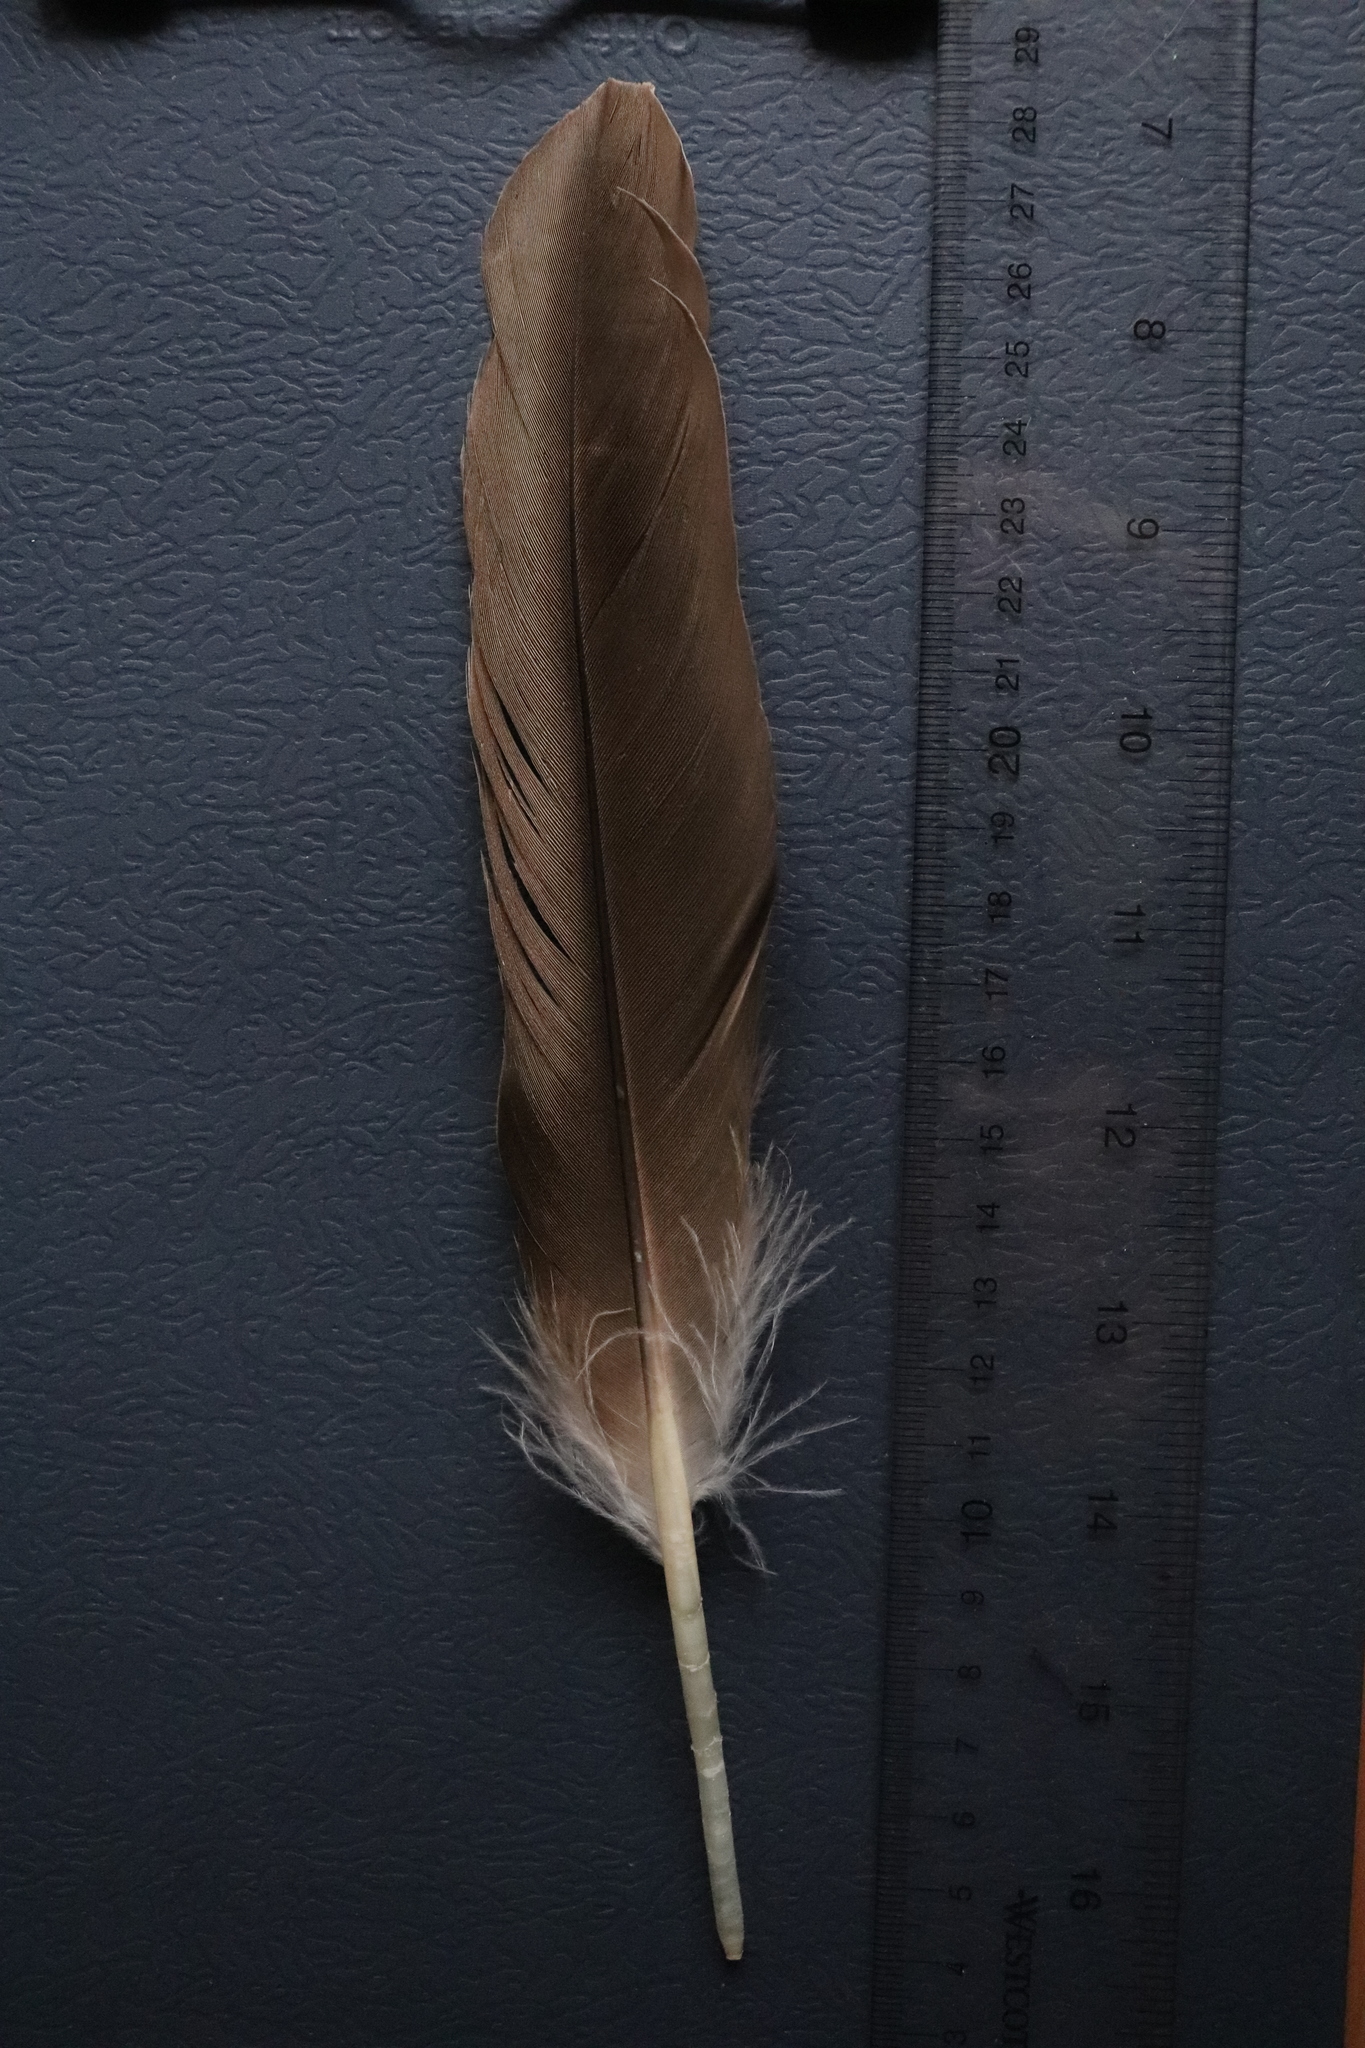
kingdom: Animalia
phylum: Chordata
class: Aves
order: Anseriformes
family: Anatidae
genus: Branta
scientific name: Branta canadensis
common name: Canada goose
